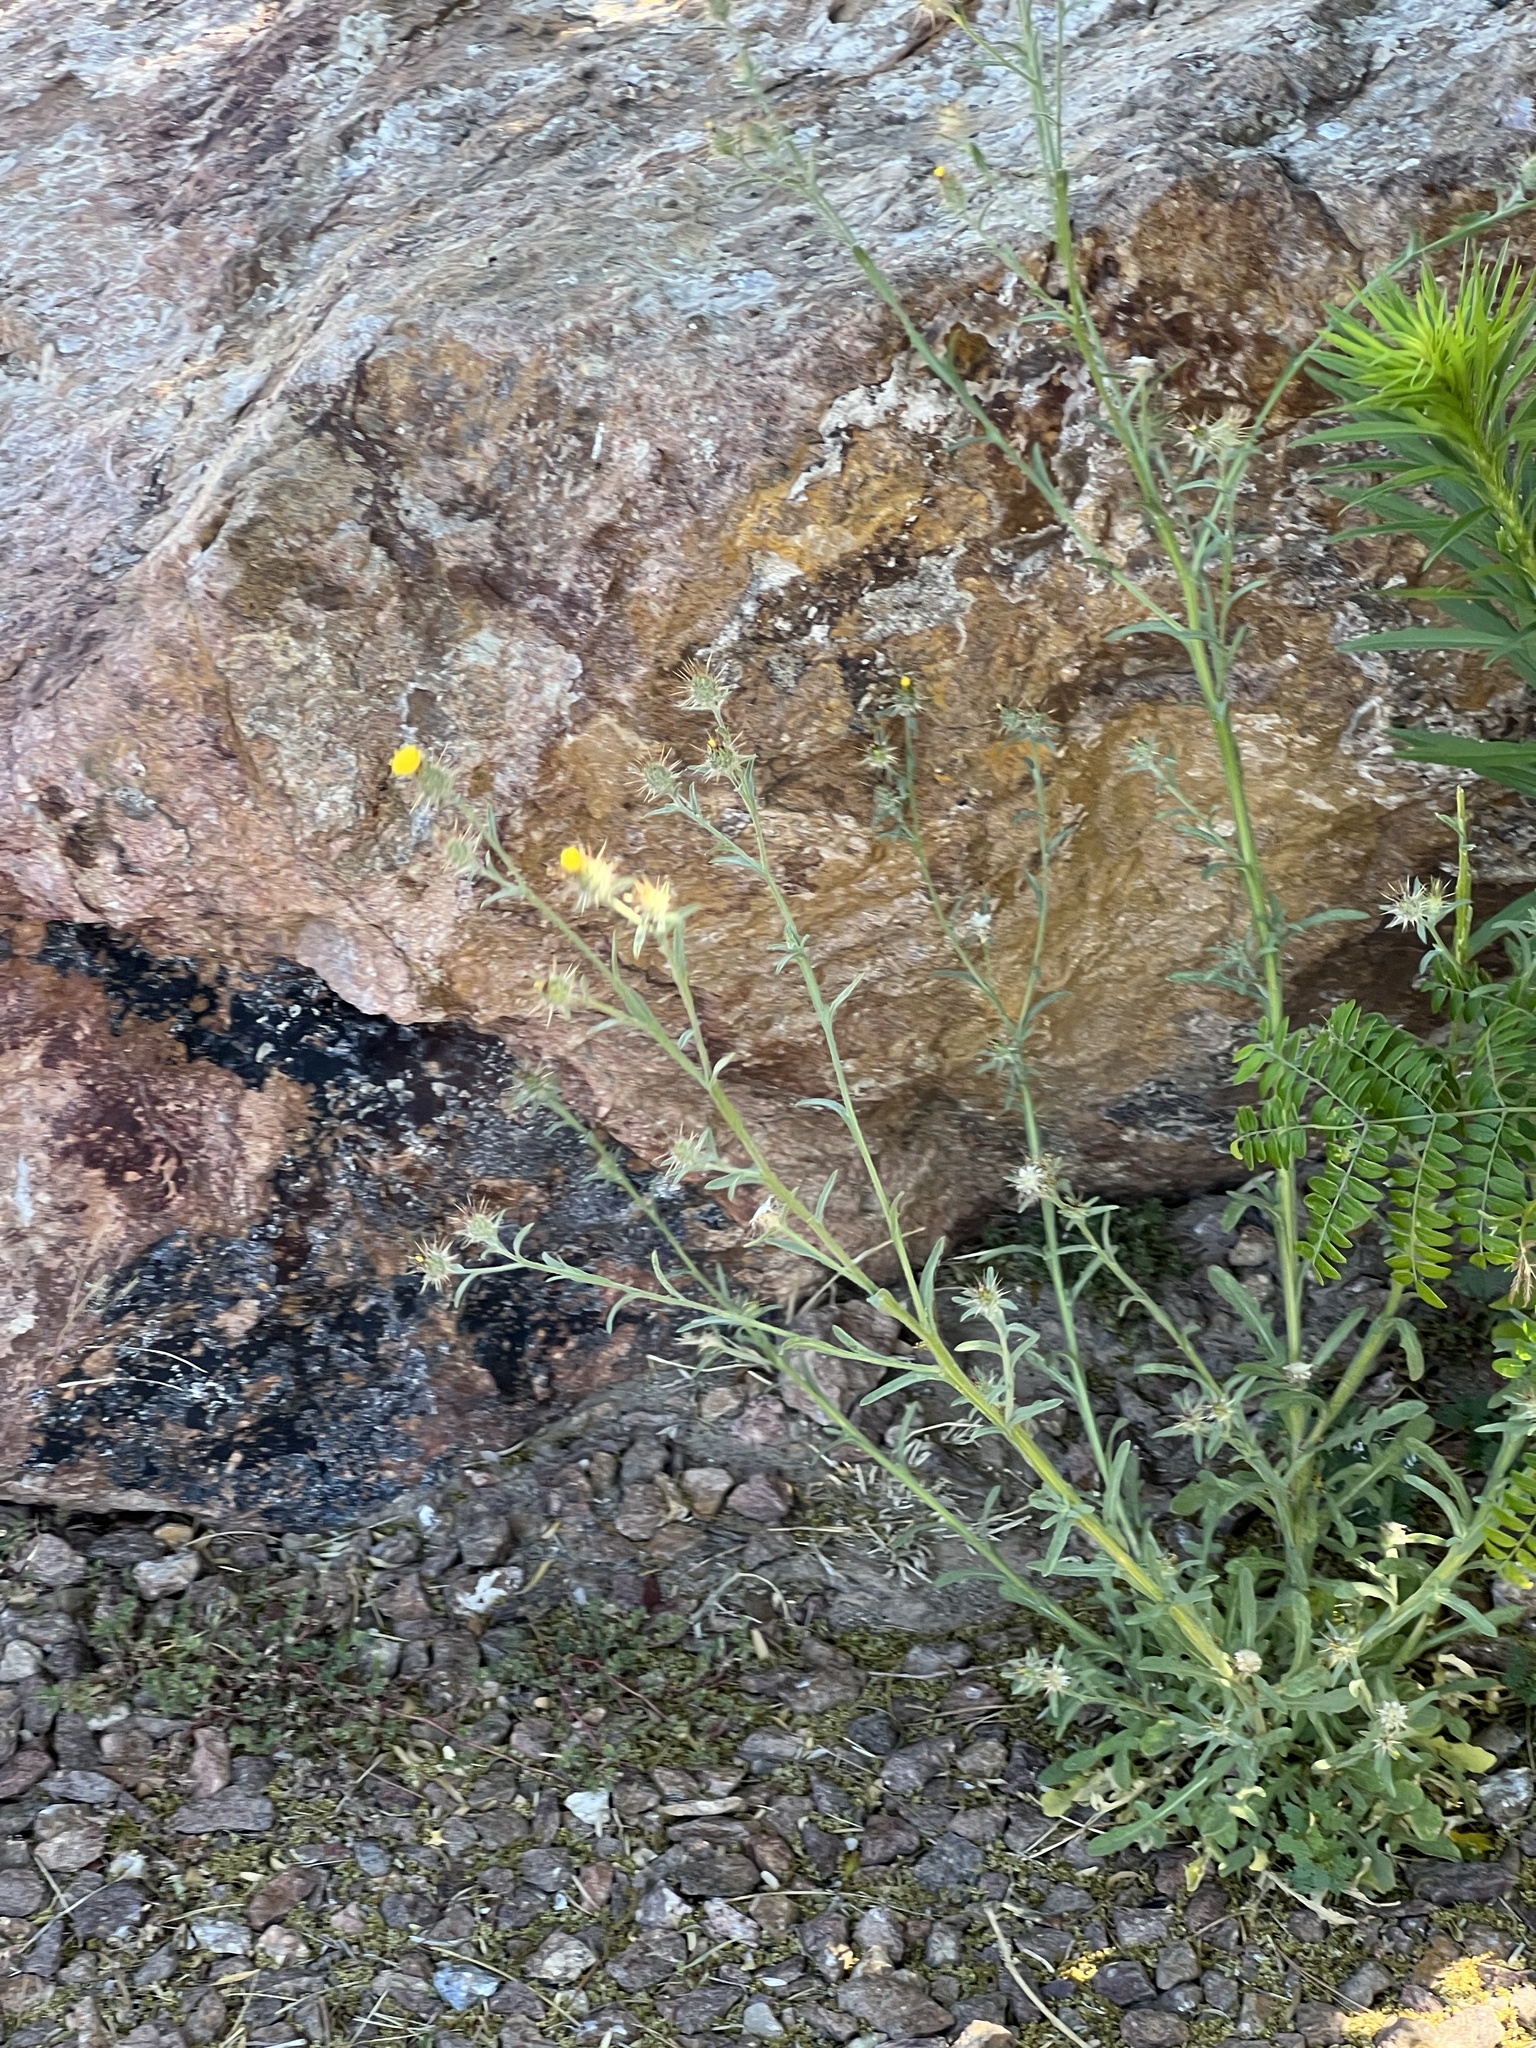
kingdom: Plantae
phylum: Tracheophyta
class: Magnoliopsida
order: Asterales
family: Asteraceae
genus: Centaurea
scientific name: Centaurea melitensis
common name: Maltese star-thistle
